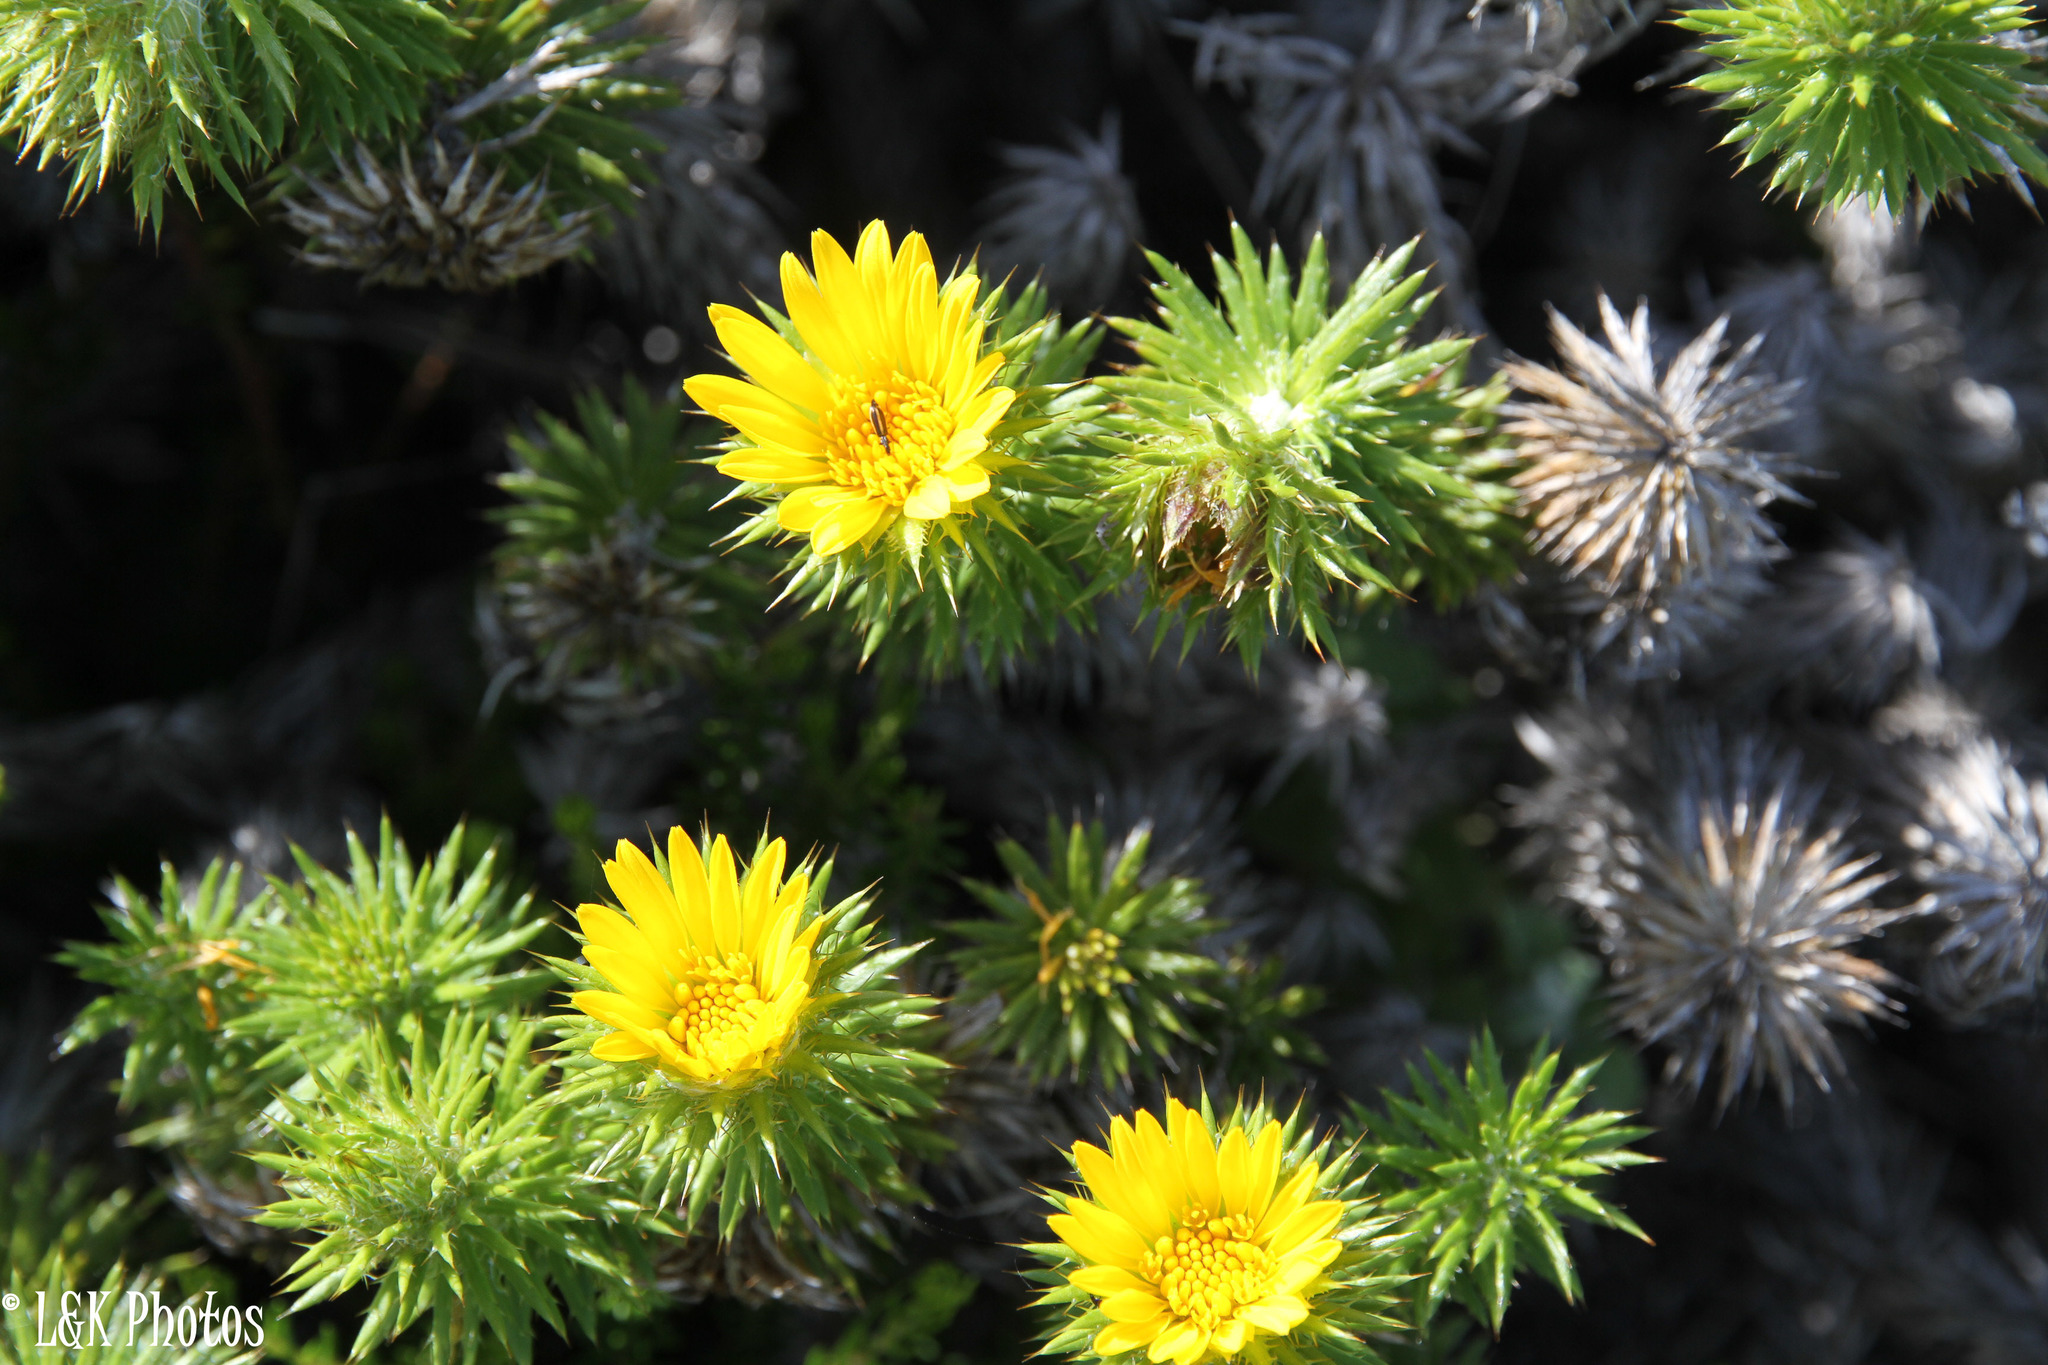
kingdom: Plantae
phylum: Tracheophyta
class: Magnoliopsida
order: Asterales
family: Asteraceae
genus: Cullumia
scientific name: Cullumia squarrosa
